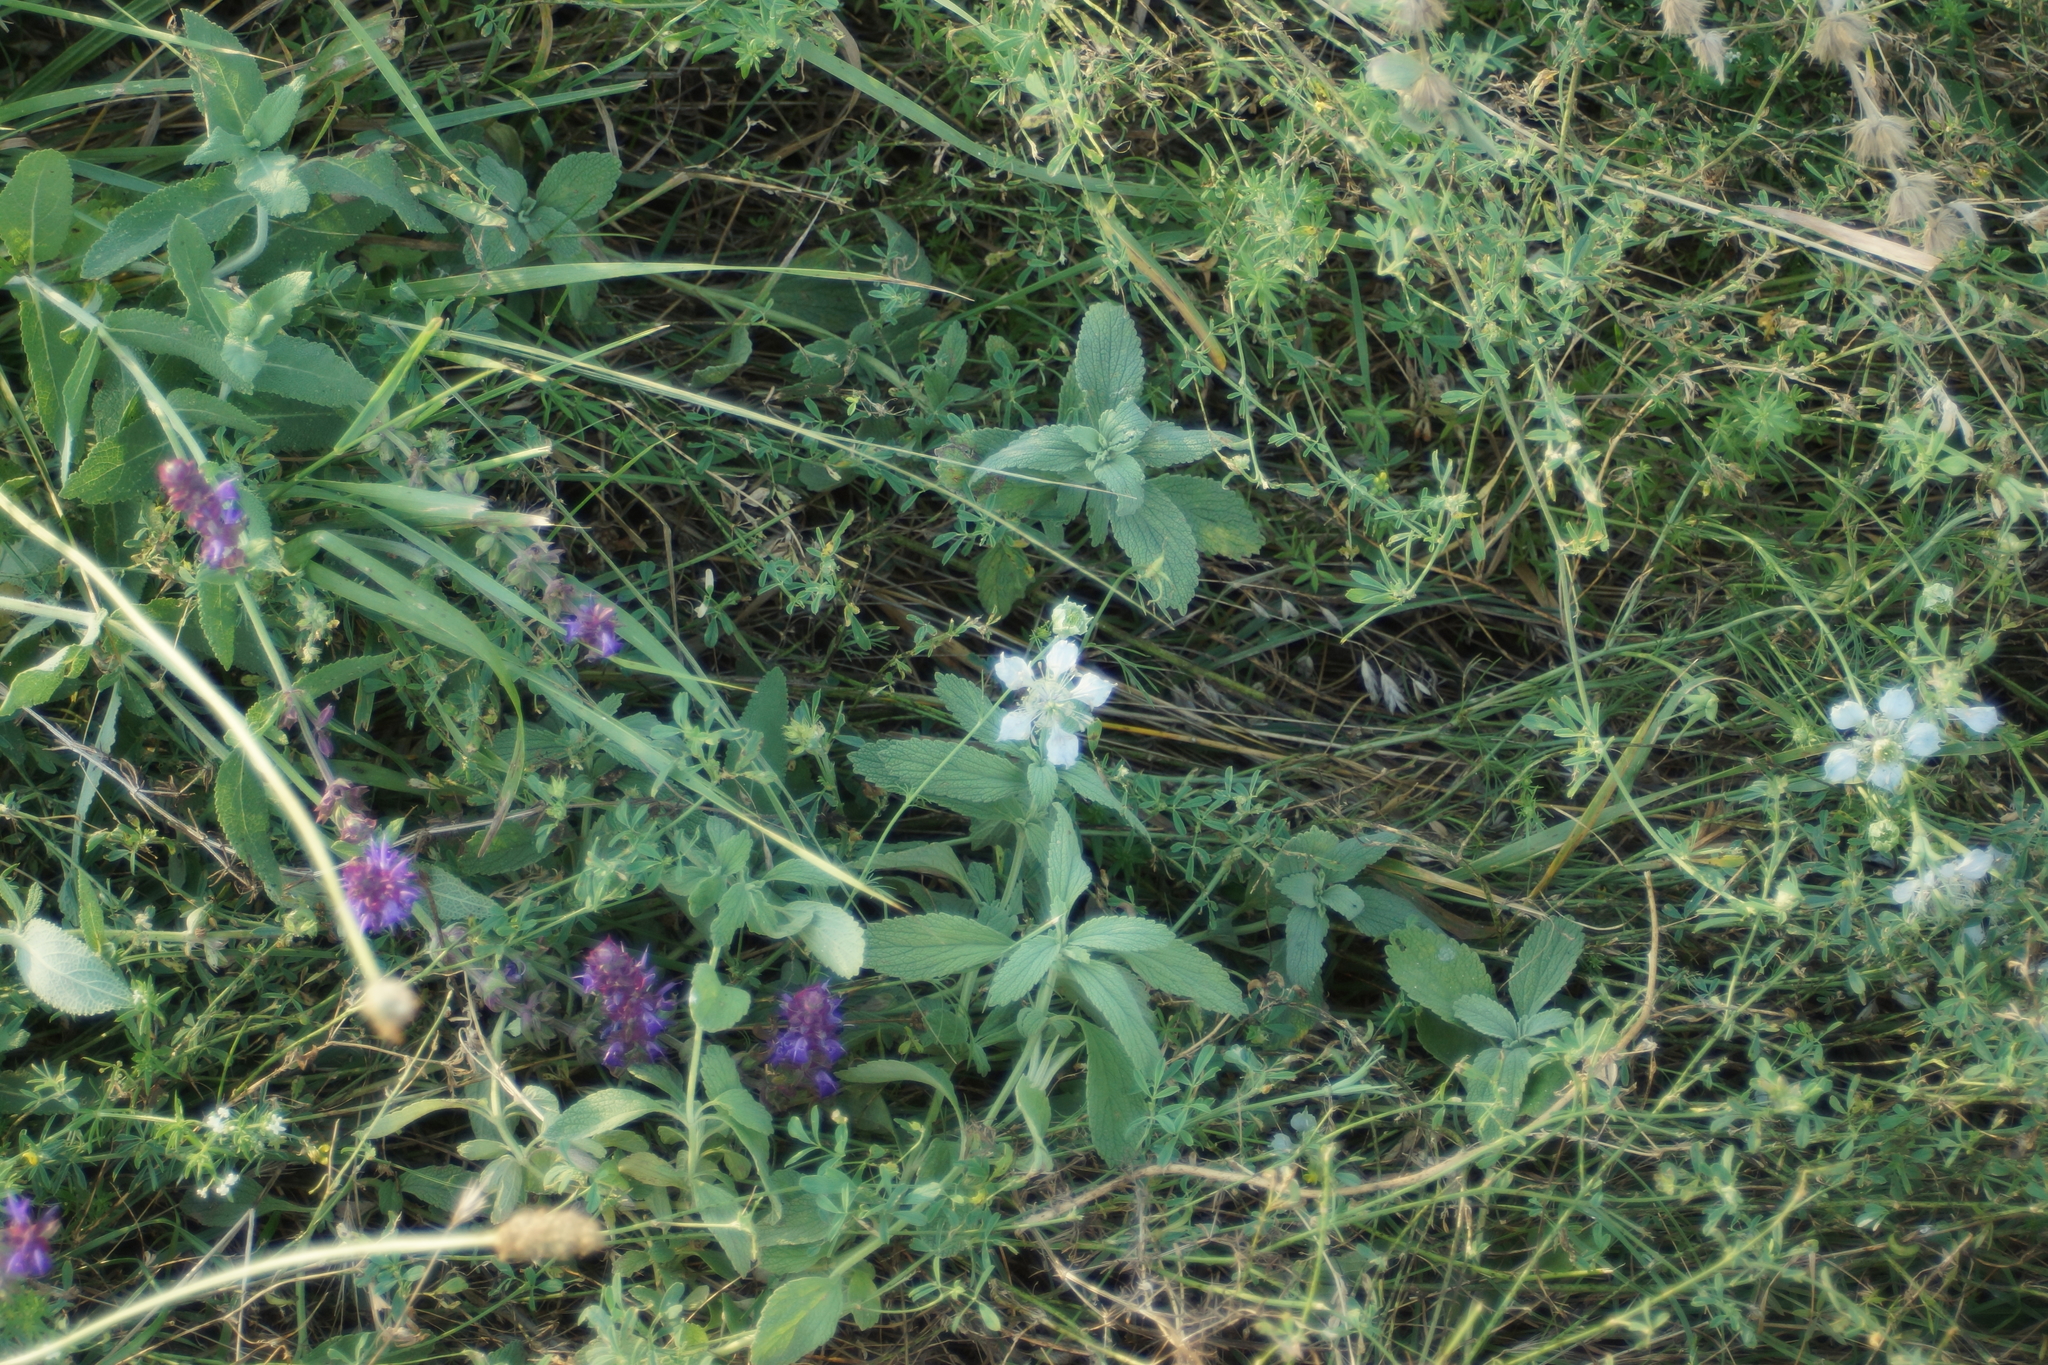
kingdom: Plantae
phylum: Tracheophyta
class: Magnoliopsida
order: Ranunculales
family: Ranunculaceae
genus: Nigella
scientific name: Nigella arvensis
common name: Wild fennel-flower
